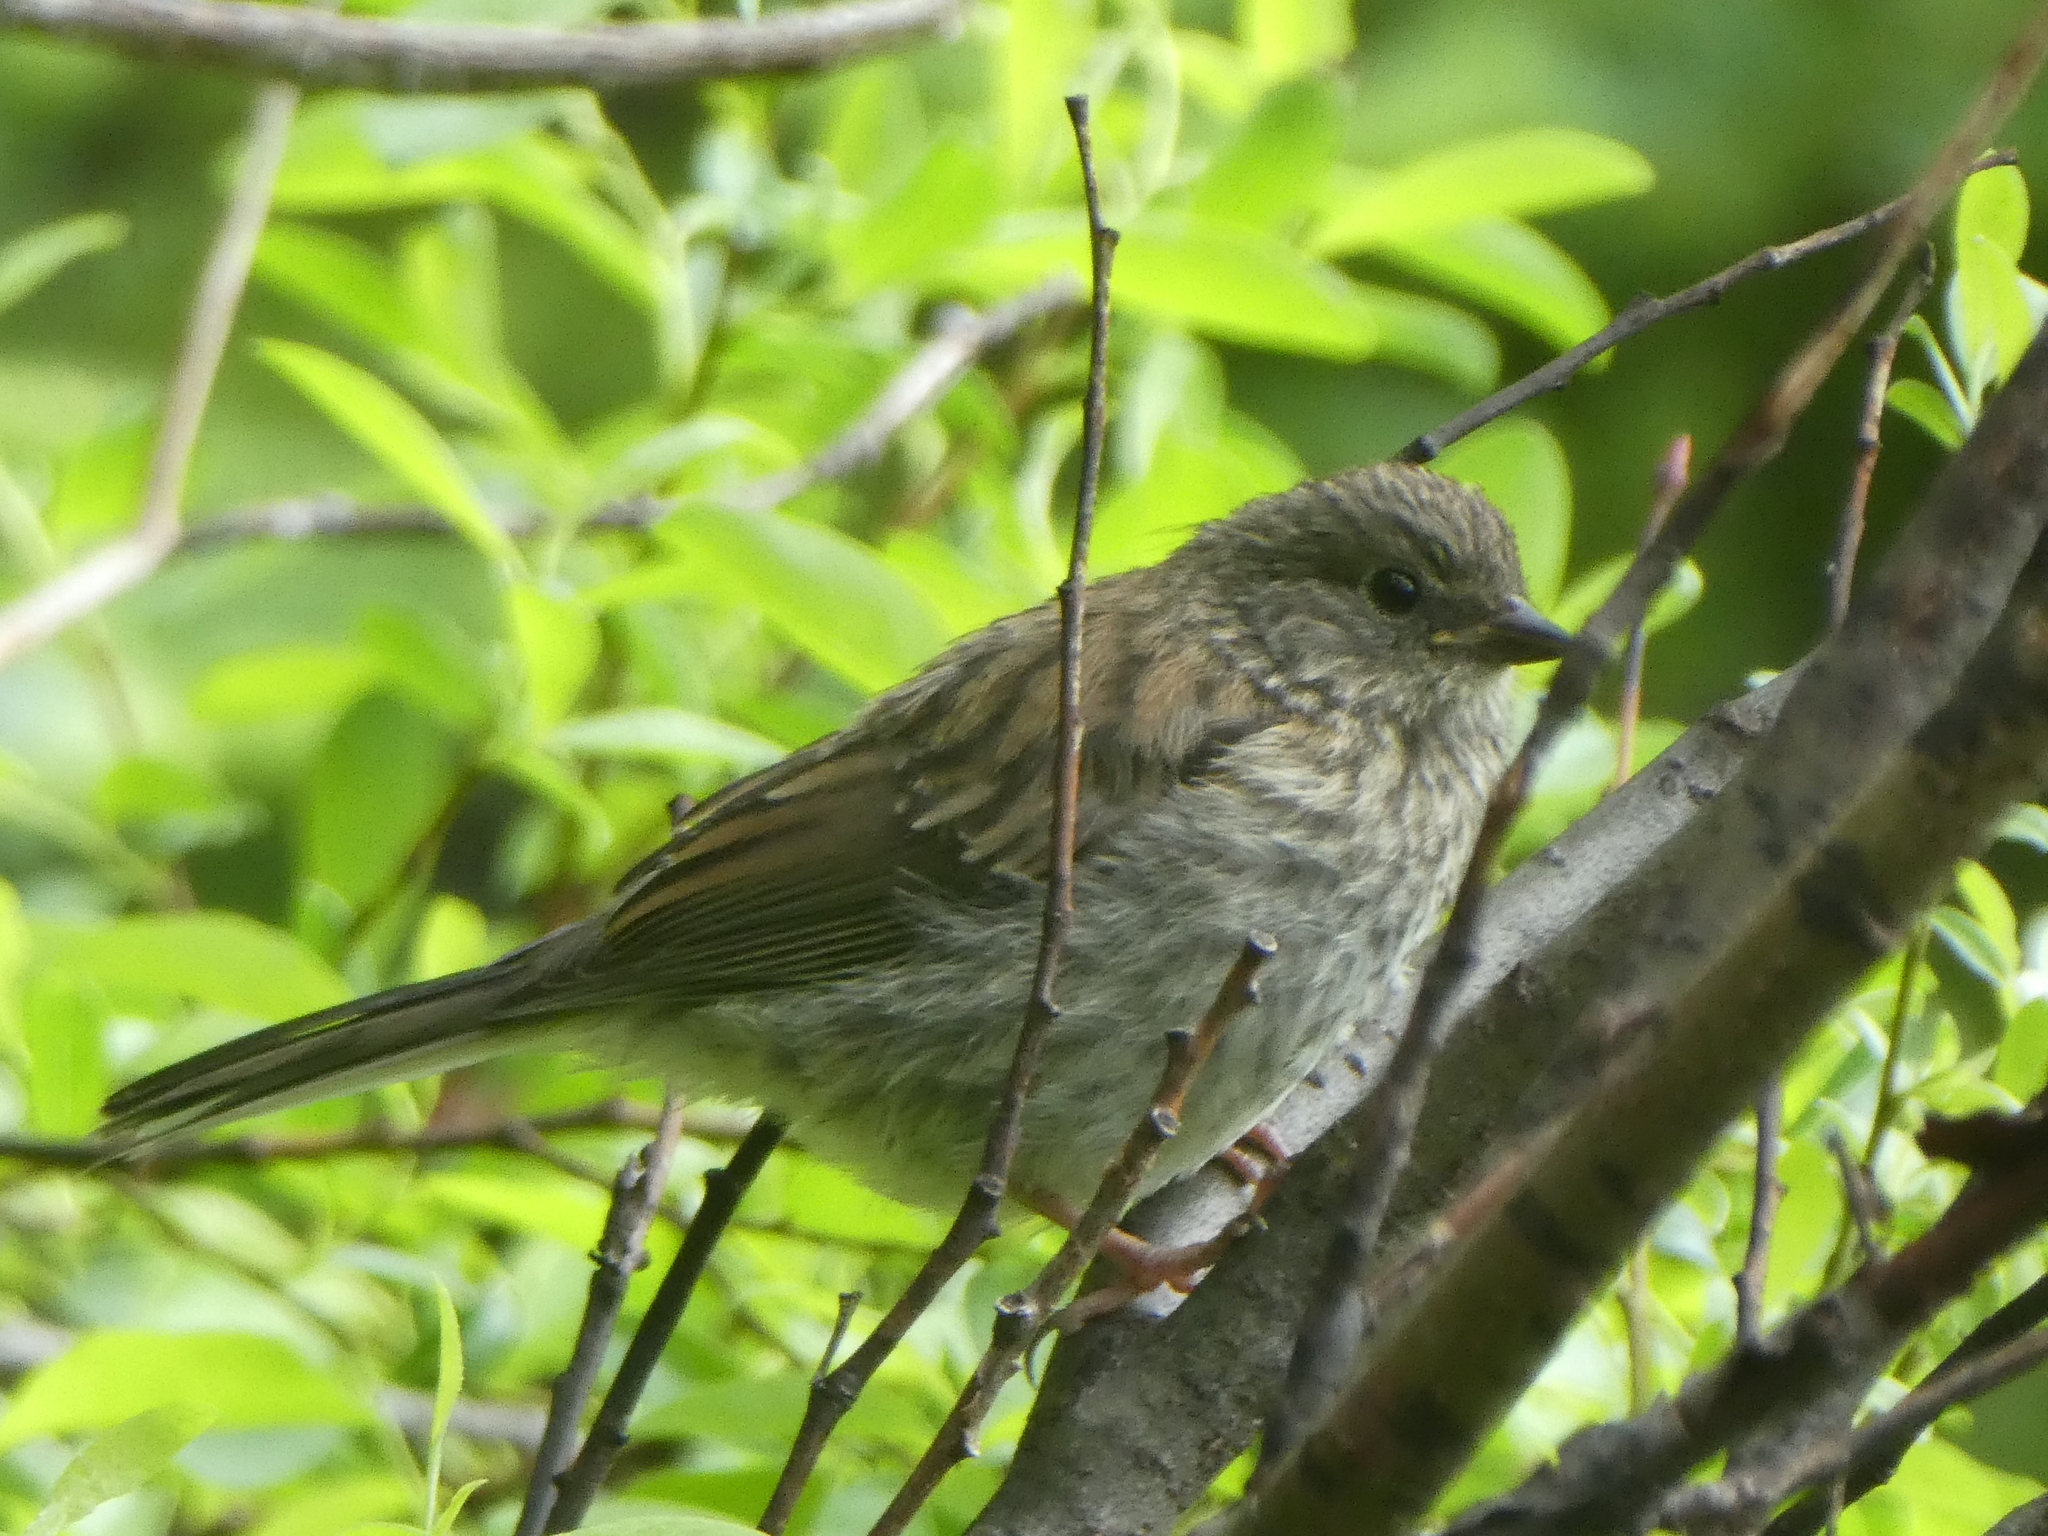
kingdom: Animalia
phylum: Chordata
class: Aves
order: Passeriformes
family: Passerellidae
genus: Junco
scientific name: Junco hyemalis
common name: Dark-eyed junco
